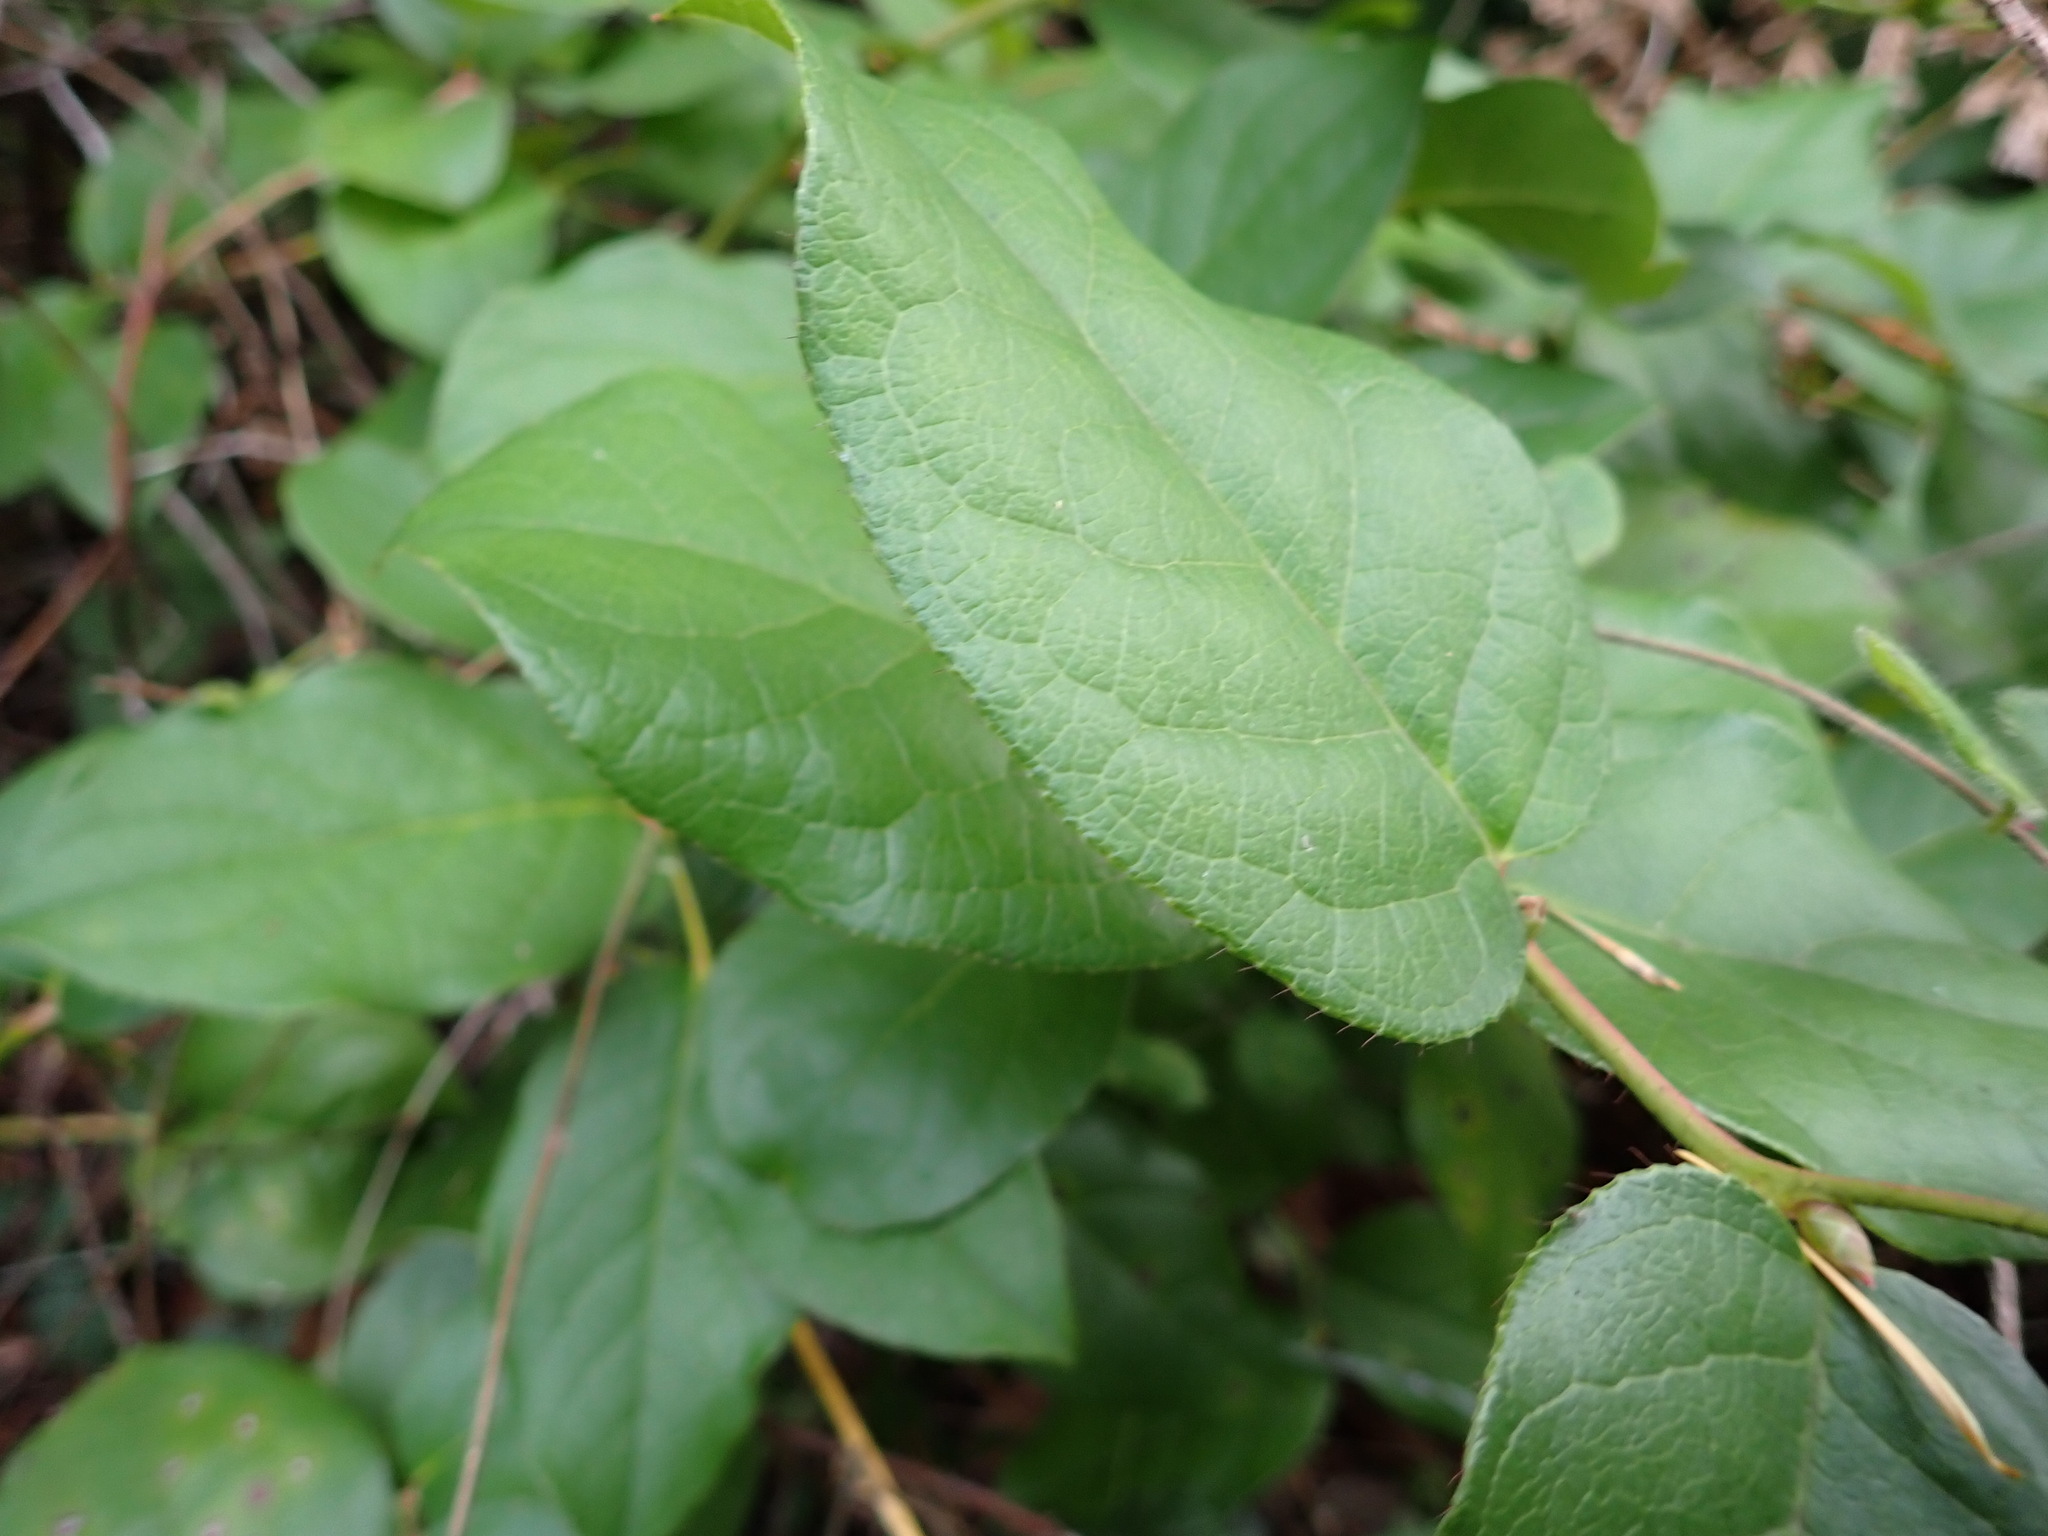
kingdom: Plantae
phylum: Tracheophyta
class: Magnoliopsida
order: Ericales
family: Ericaceae
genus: Gaultheria
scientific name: Gaultheria shallon
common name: Shallon
